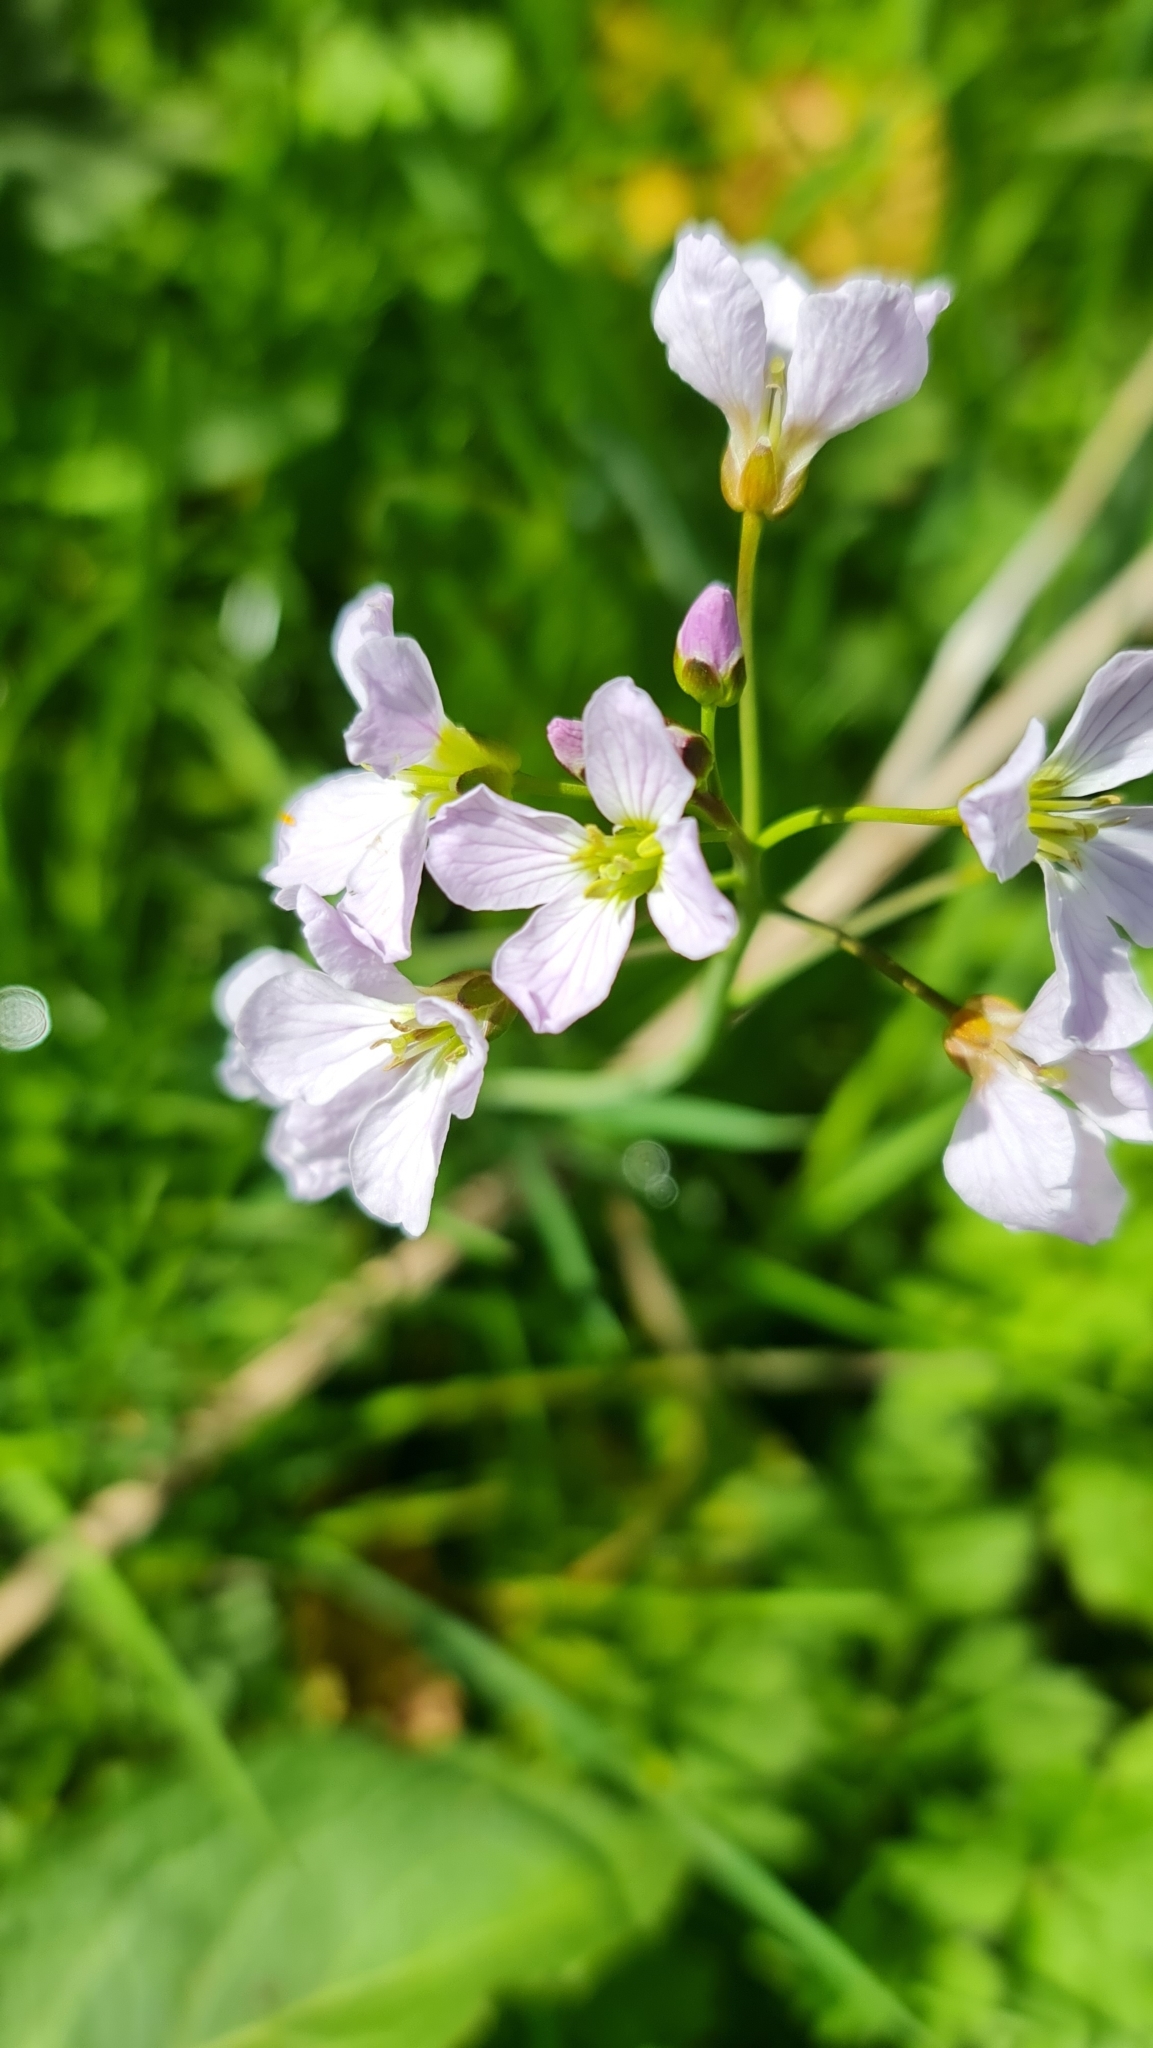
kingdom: Plantae
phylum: Tracheophyta
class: Magnoliopsida
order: Brassicales
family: Brassicaceae
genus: Cardamine
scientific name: Cardamine pratensis
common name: Cuckoo flower
